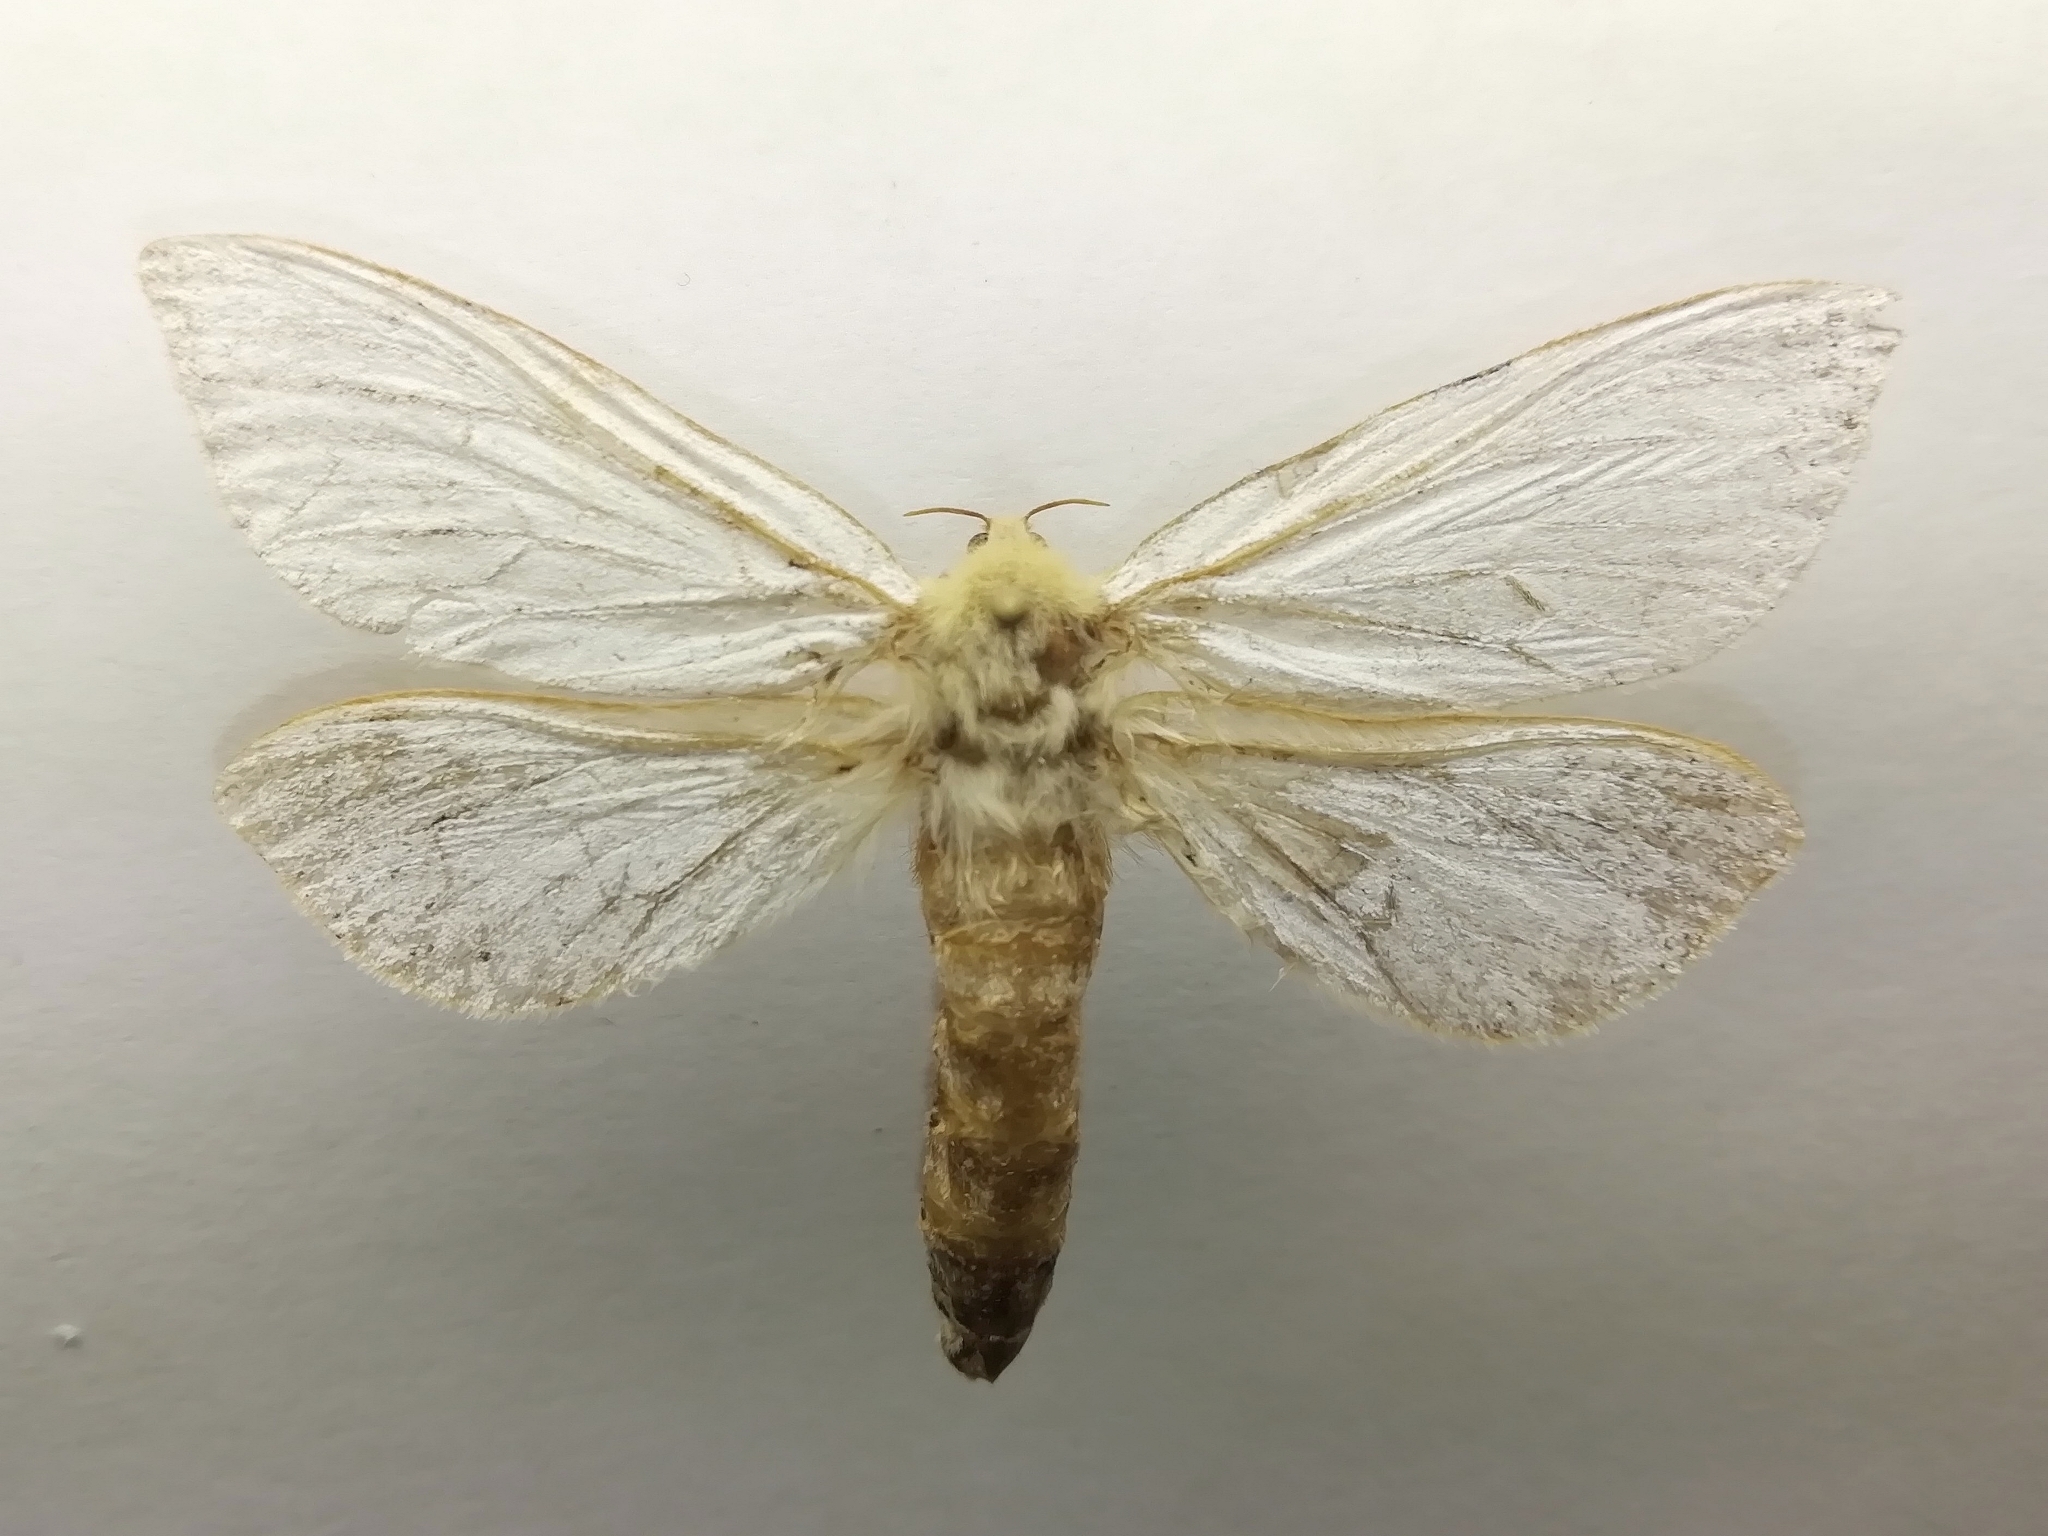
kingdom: Animalia
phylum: Arthropoda
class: Insecta
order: Lepidoptera
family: Hepialidae
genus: Hepialus
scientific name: Hepialus humuli
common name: Ghost moth
